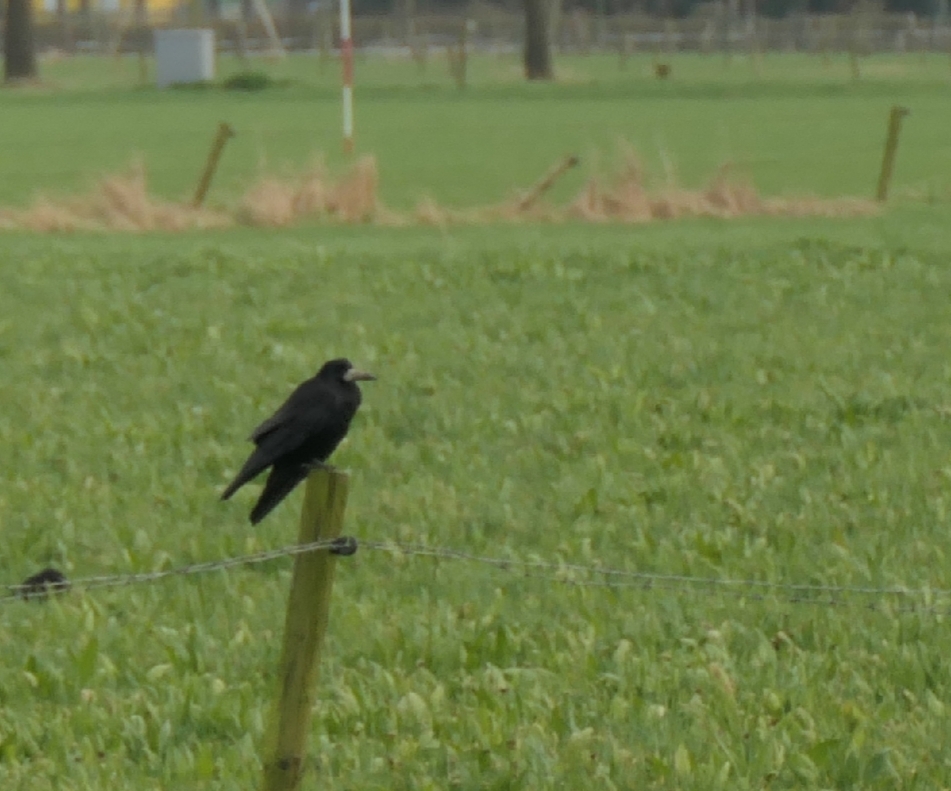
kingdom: Animalia
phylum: Chordata
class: Aves
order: Passeriformes
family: Corvidae
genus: Corvus
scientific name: Corvus frugilegus
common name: Rook
